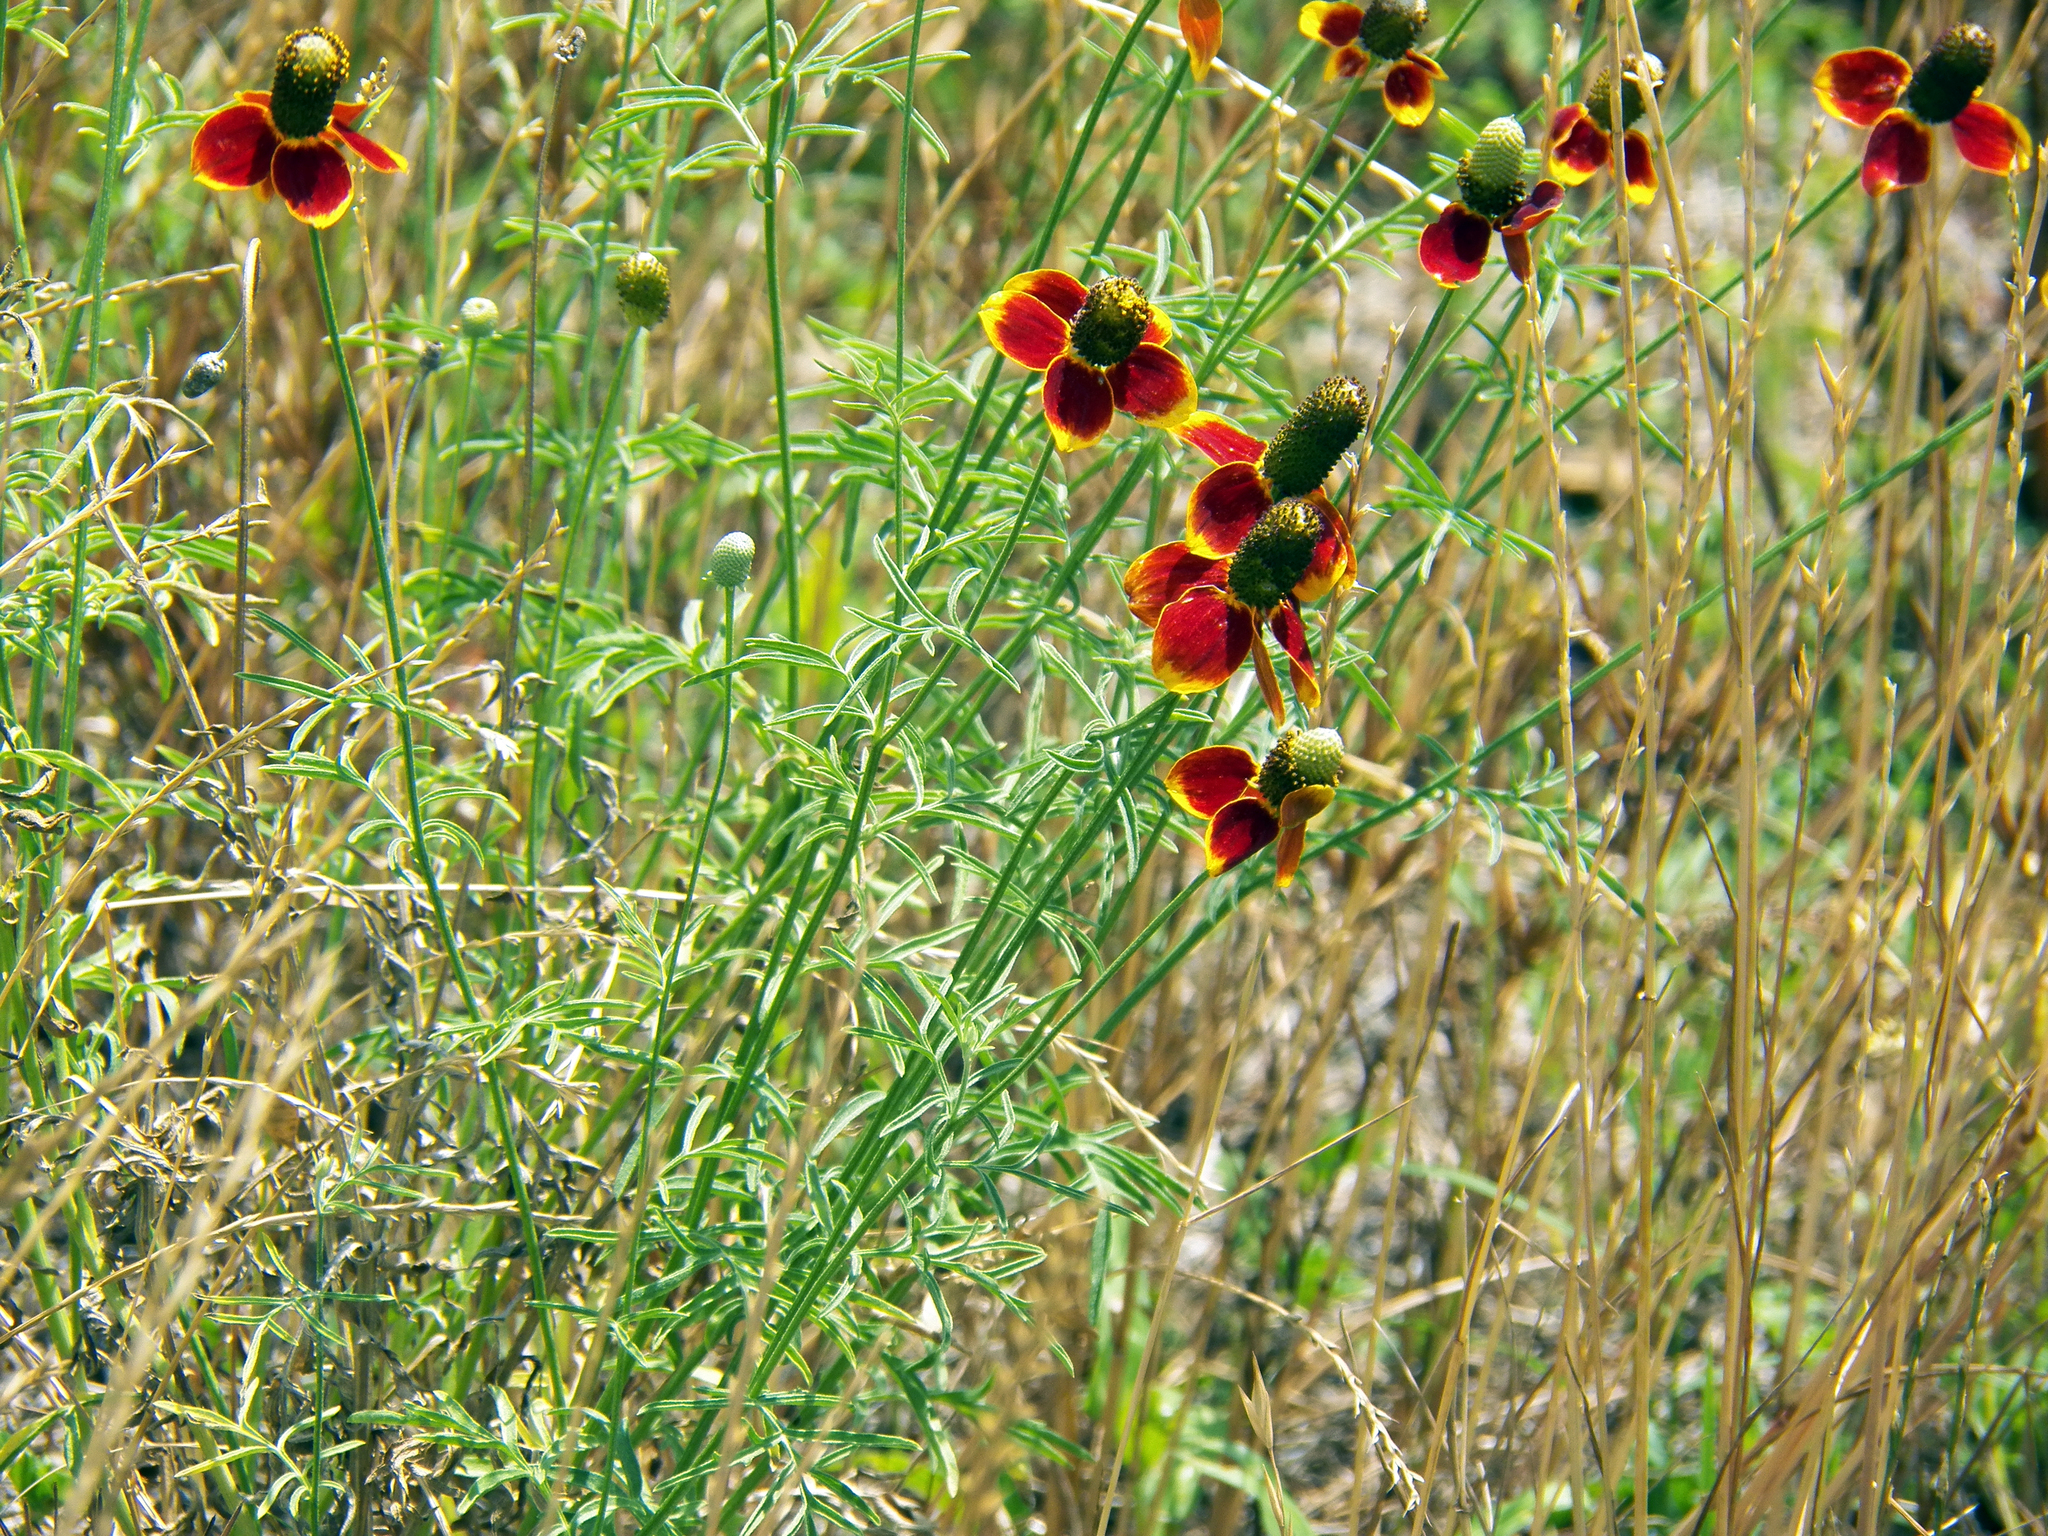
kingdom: Plantae
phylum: Tracheophyta
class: Magnoliopsida
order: Asterales
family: Asteraceae
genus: Ratibida
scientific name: Ratibida columnifera
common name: Prairie coneflower
